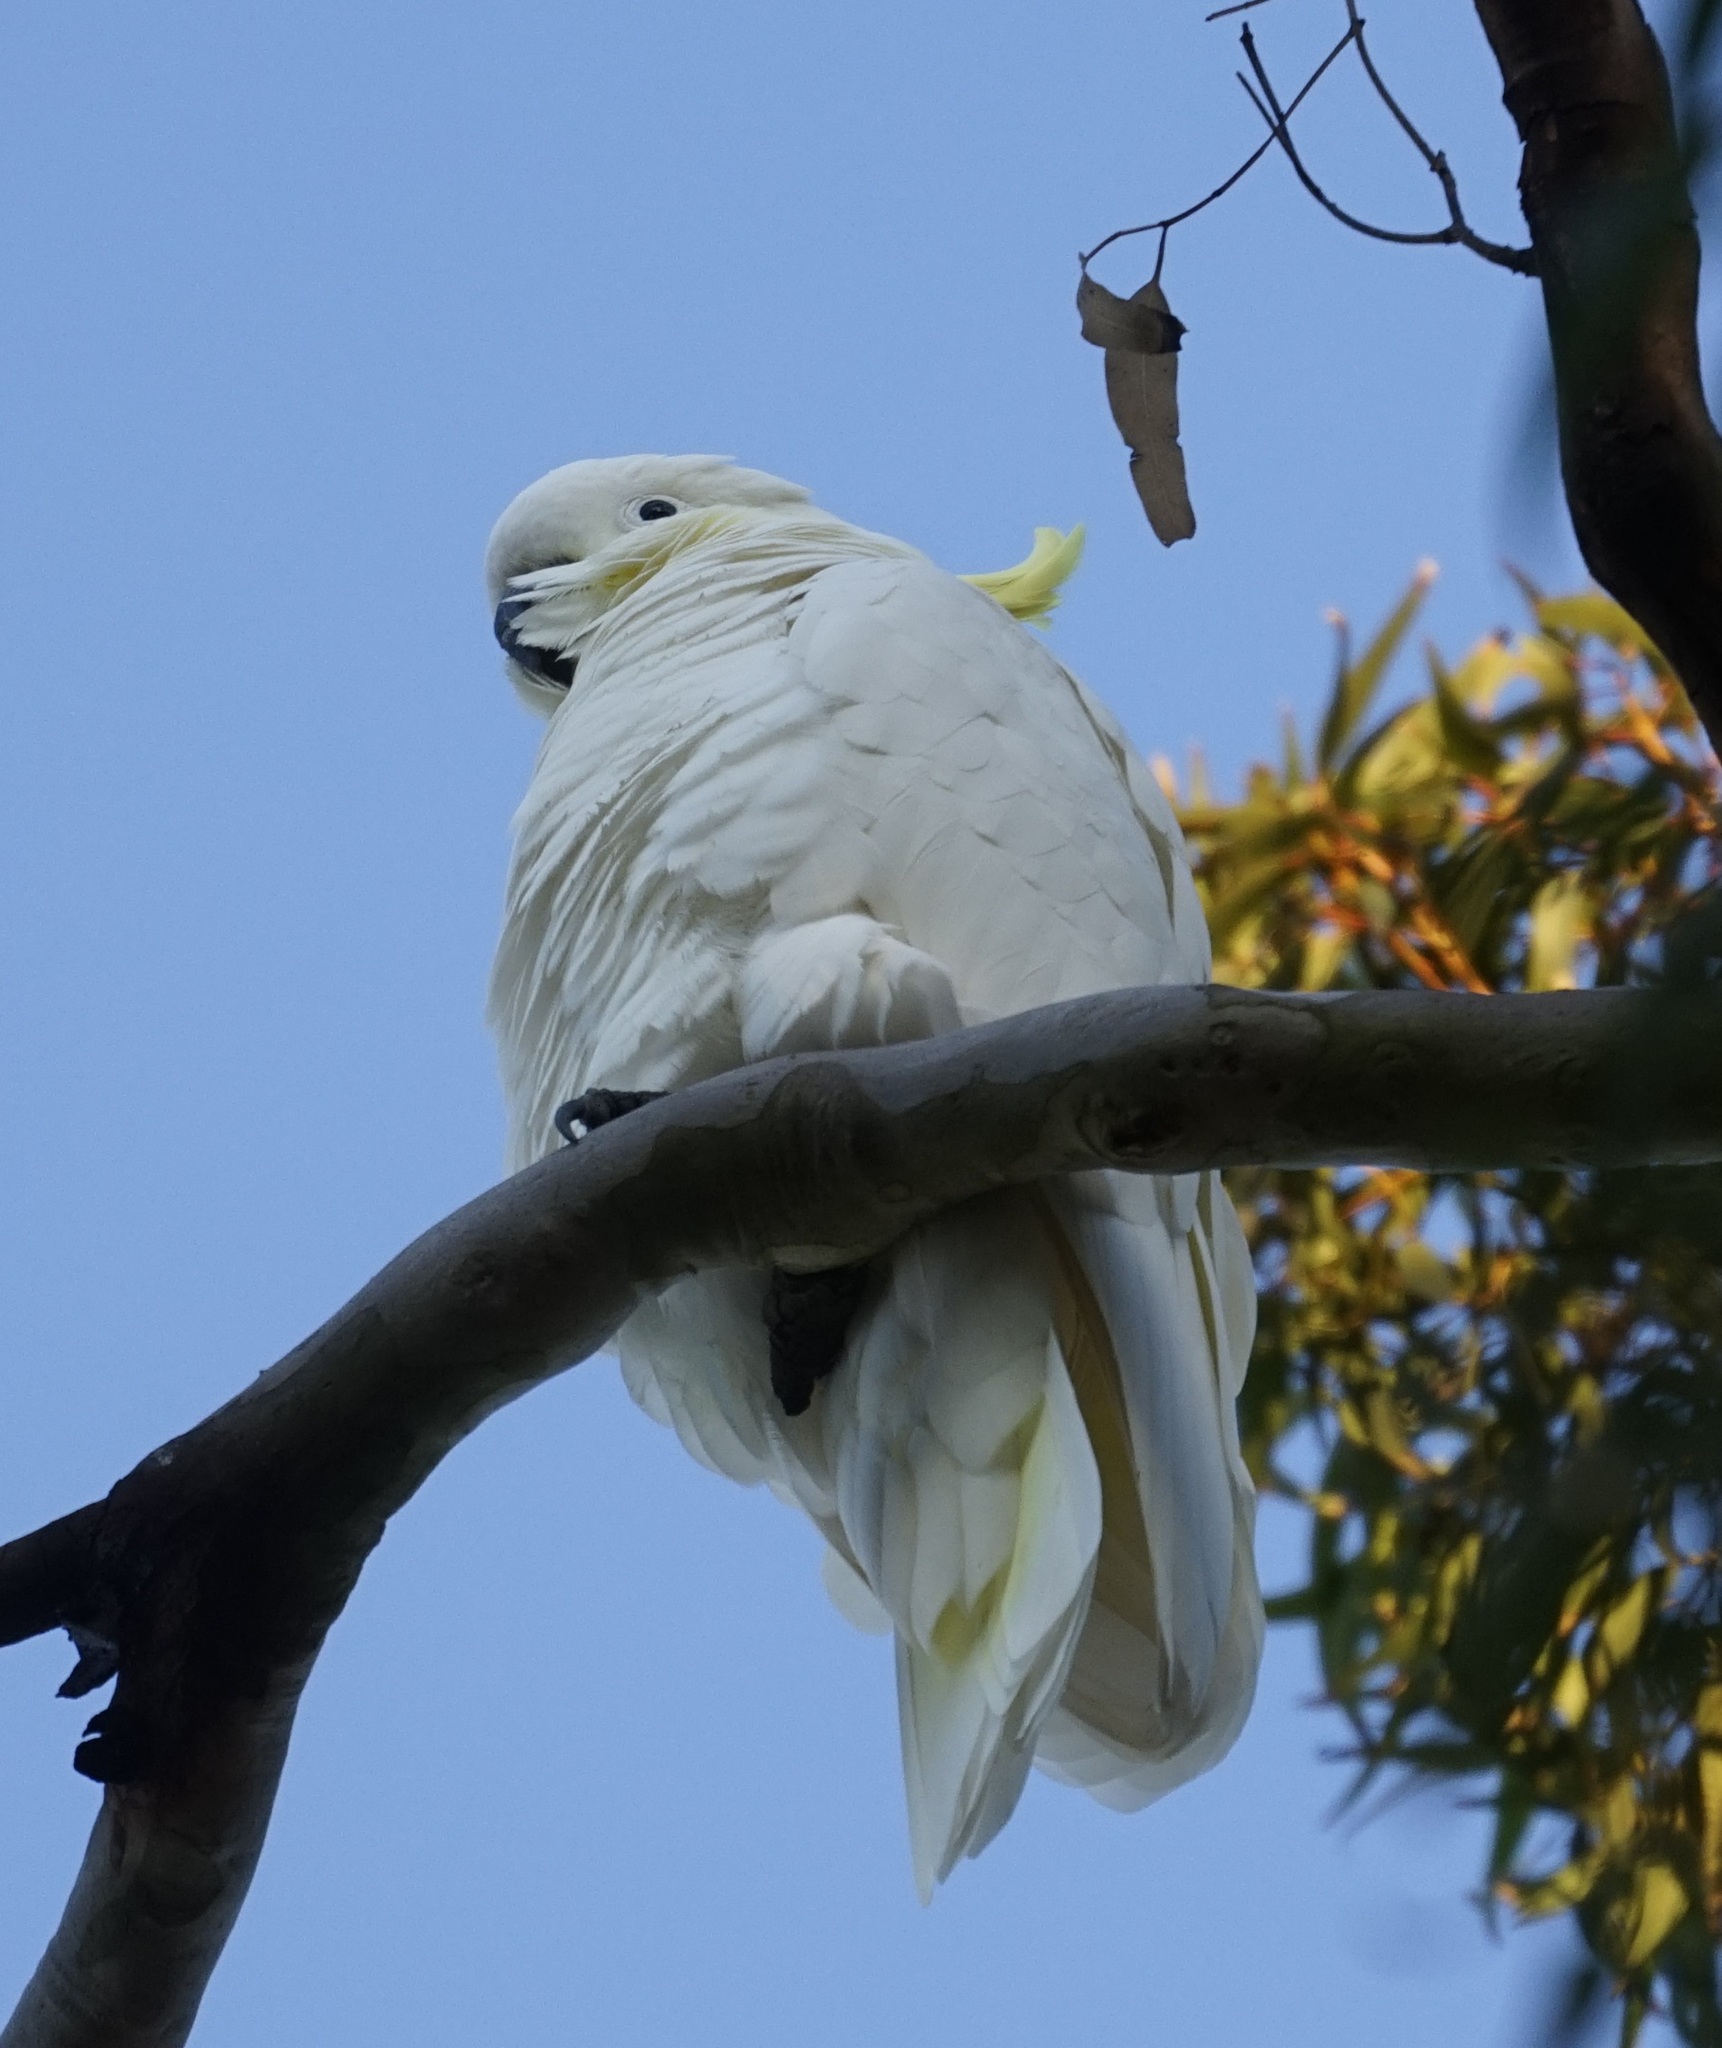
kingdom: Animalia
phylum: Chordata
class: Aves
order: Psittaciformes
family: Psittacidae
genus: Cacatua
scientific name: Cacatua galerita
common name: Sulphur-crested cockatoo
